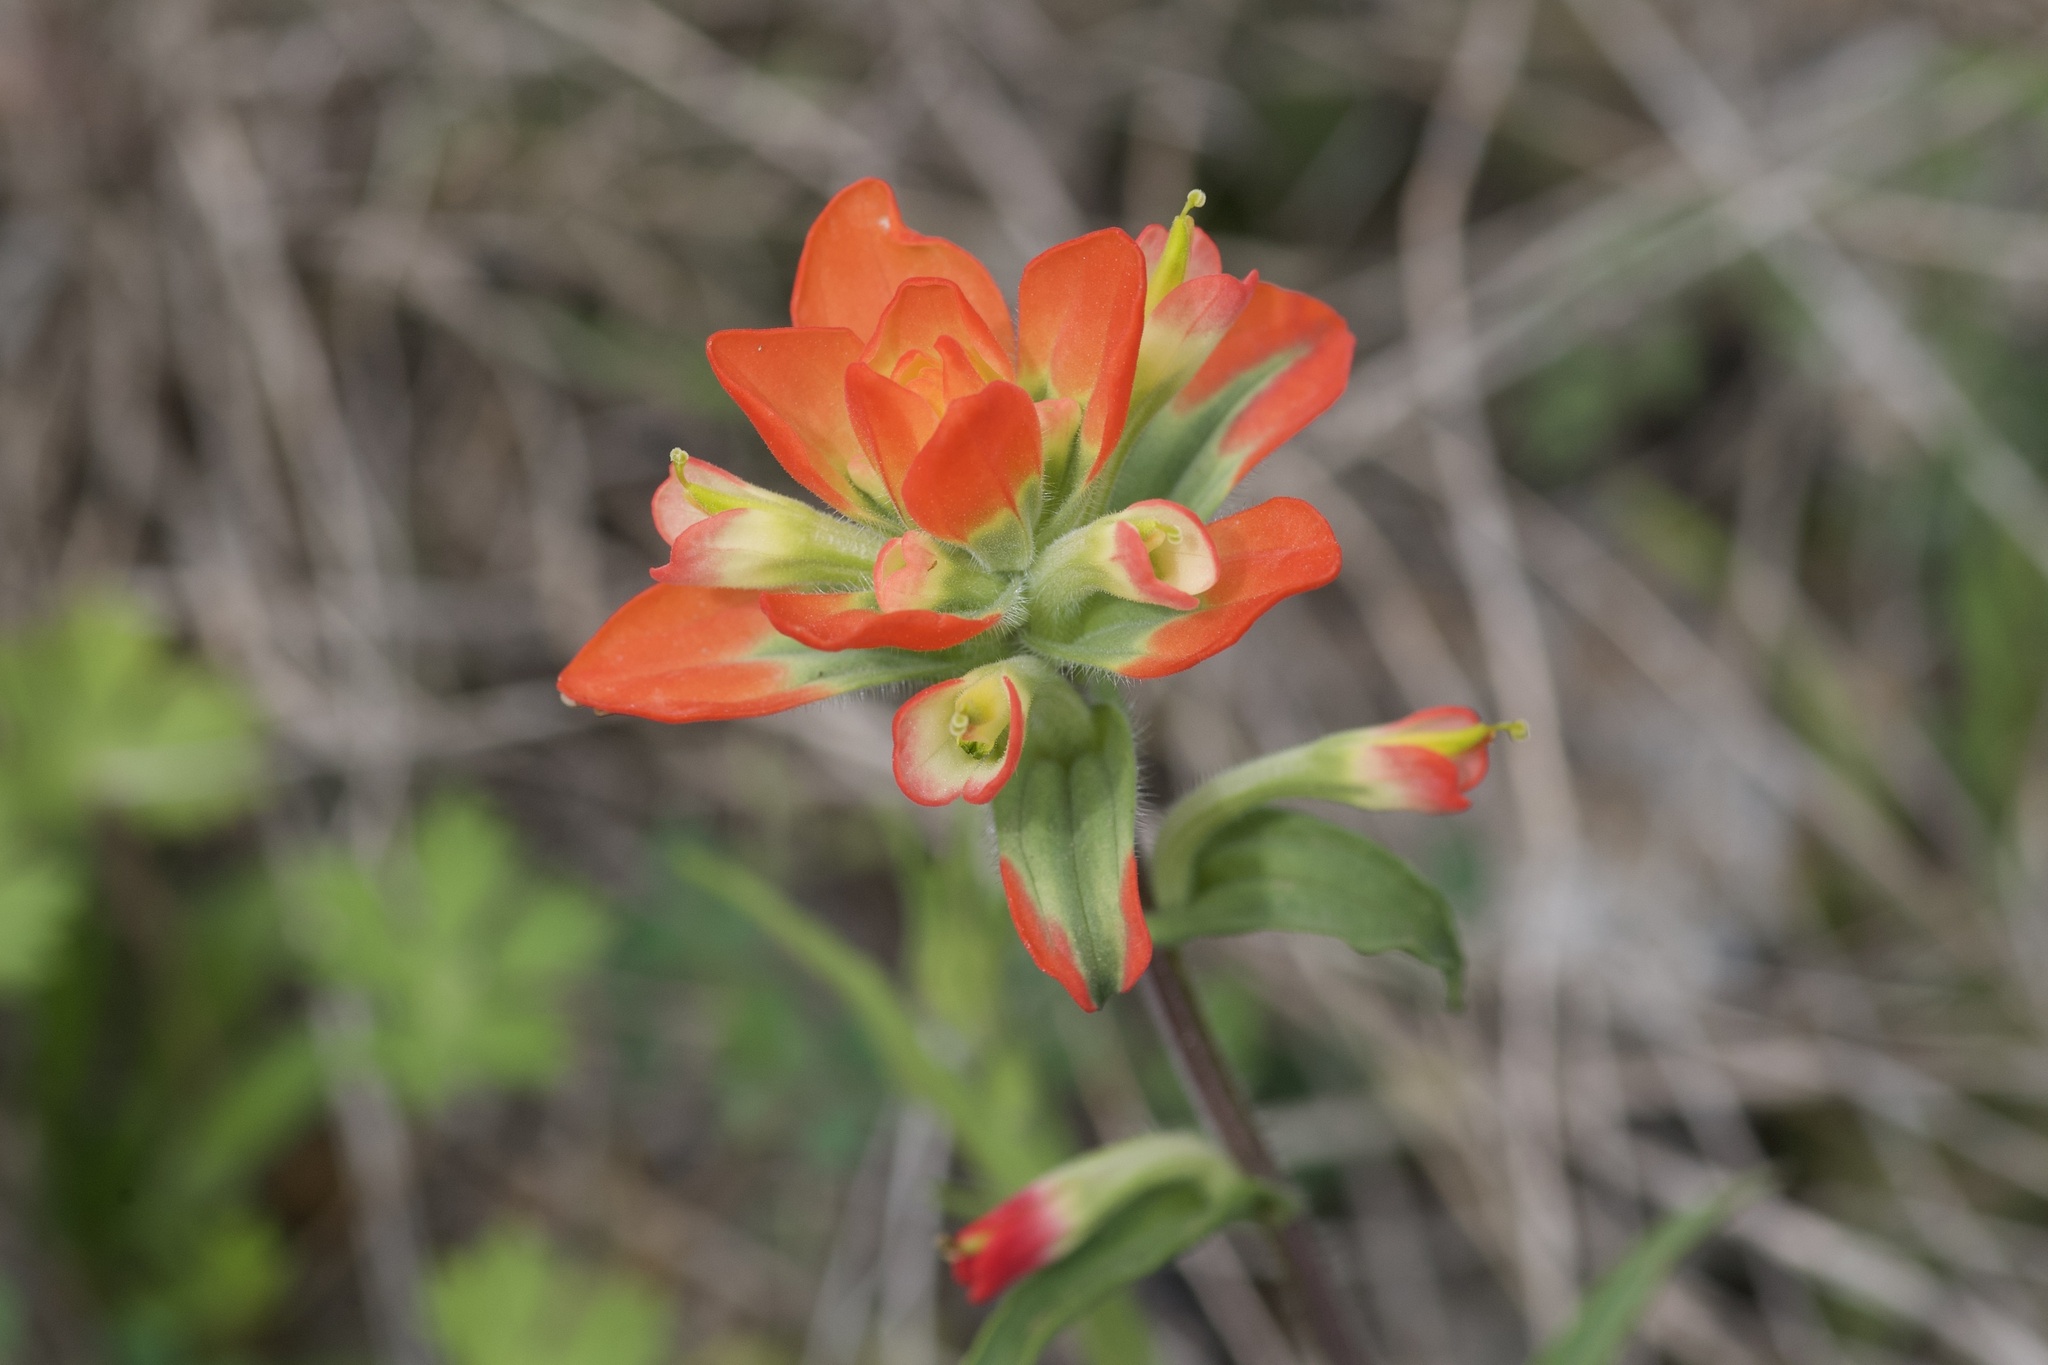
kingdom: Plantae
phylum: Tracheophyta
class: Magnoliopsida
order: Lamiales
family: Orobanchaceae
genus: Castilleja
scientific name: Castilleja indivisa
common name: Texas paintbrush
